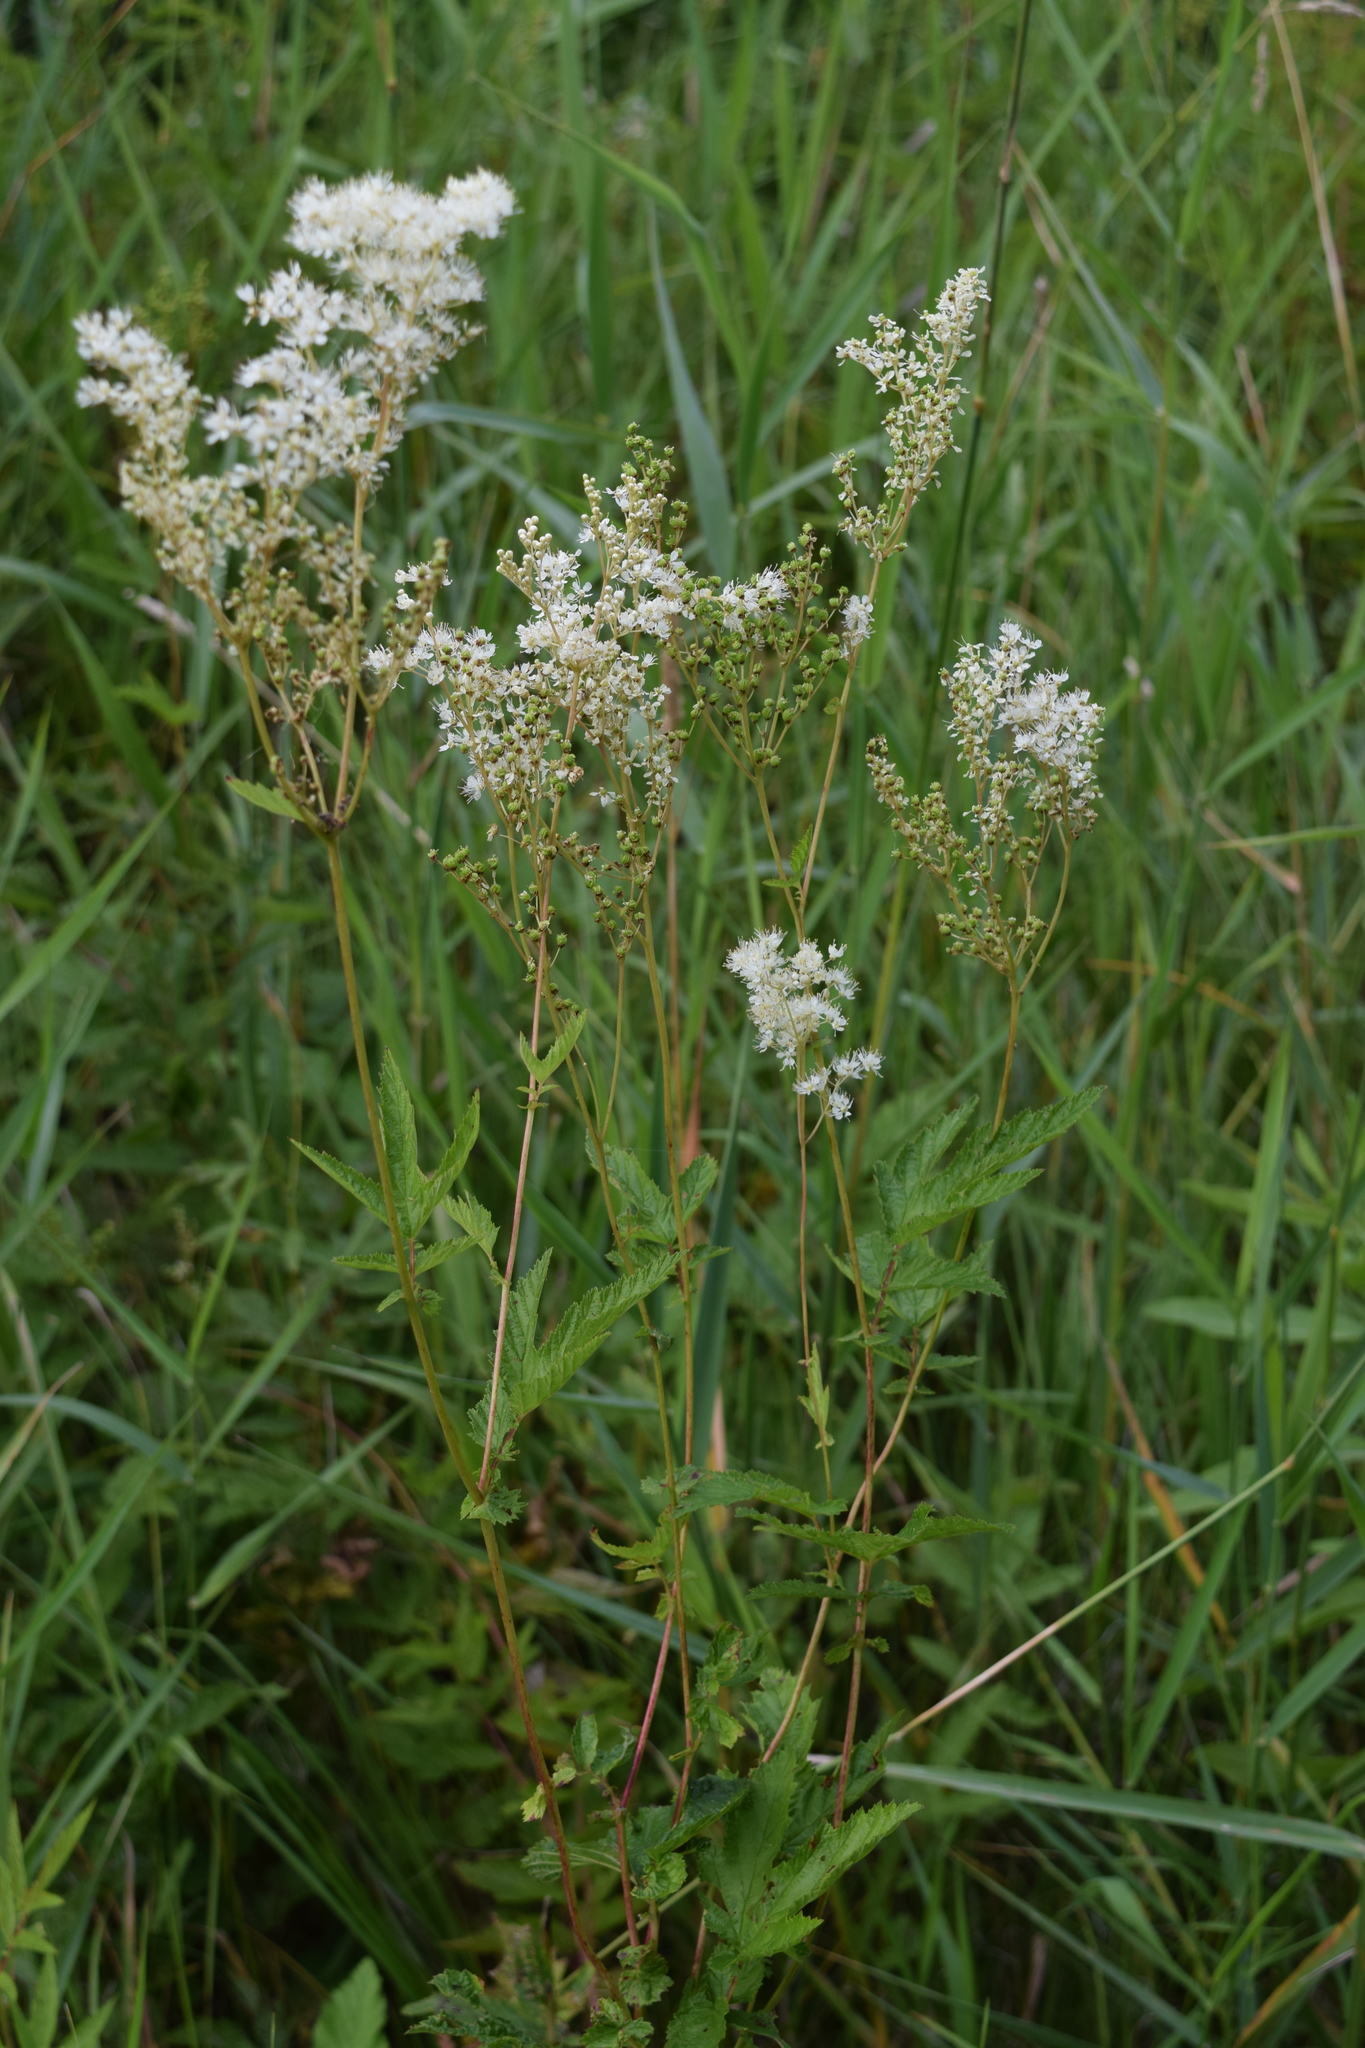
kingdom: Plantae
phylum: Tracheophyta
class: Magnoliopsida
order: Rosales
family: Rosaceae
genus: Filipendula
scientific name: Filipendula ulmaria
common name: Meadowsweet
